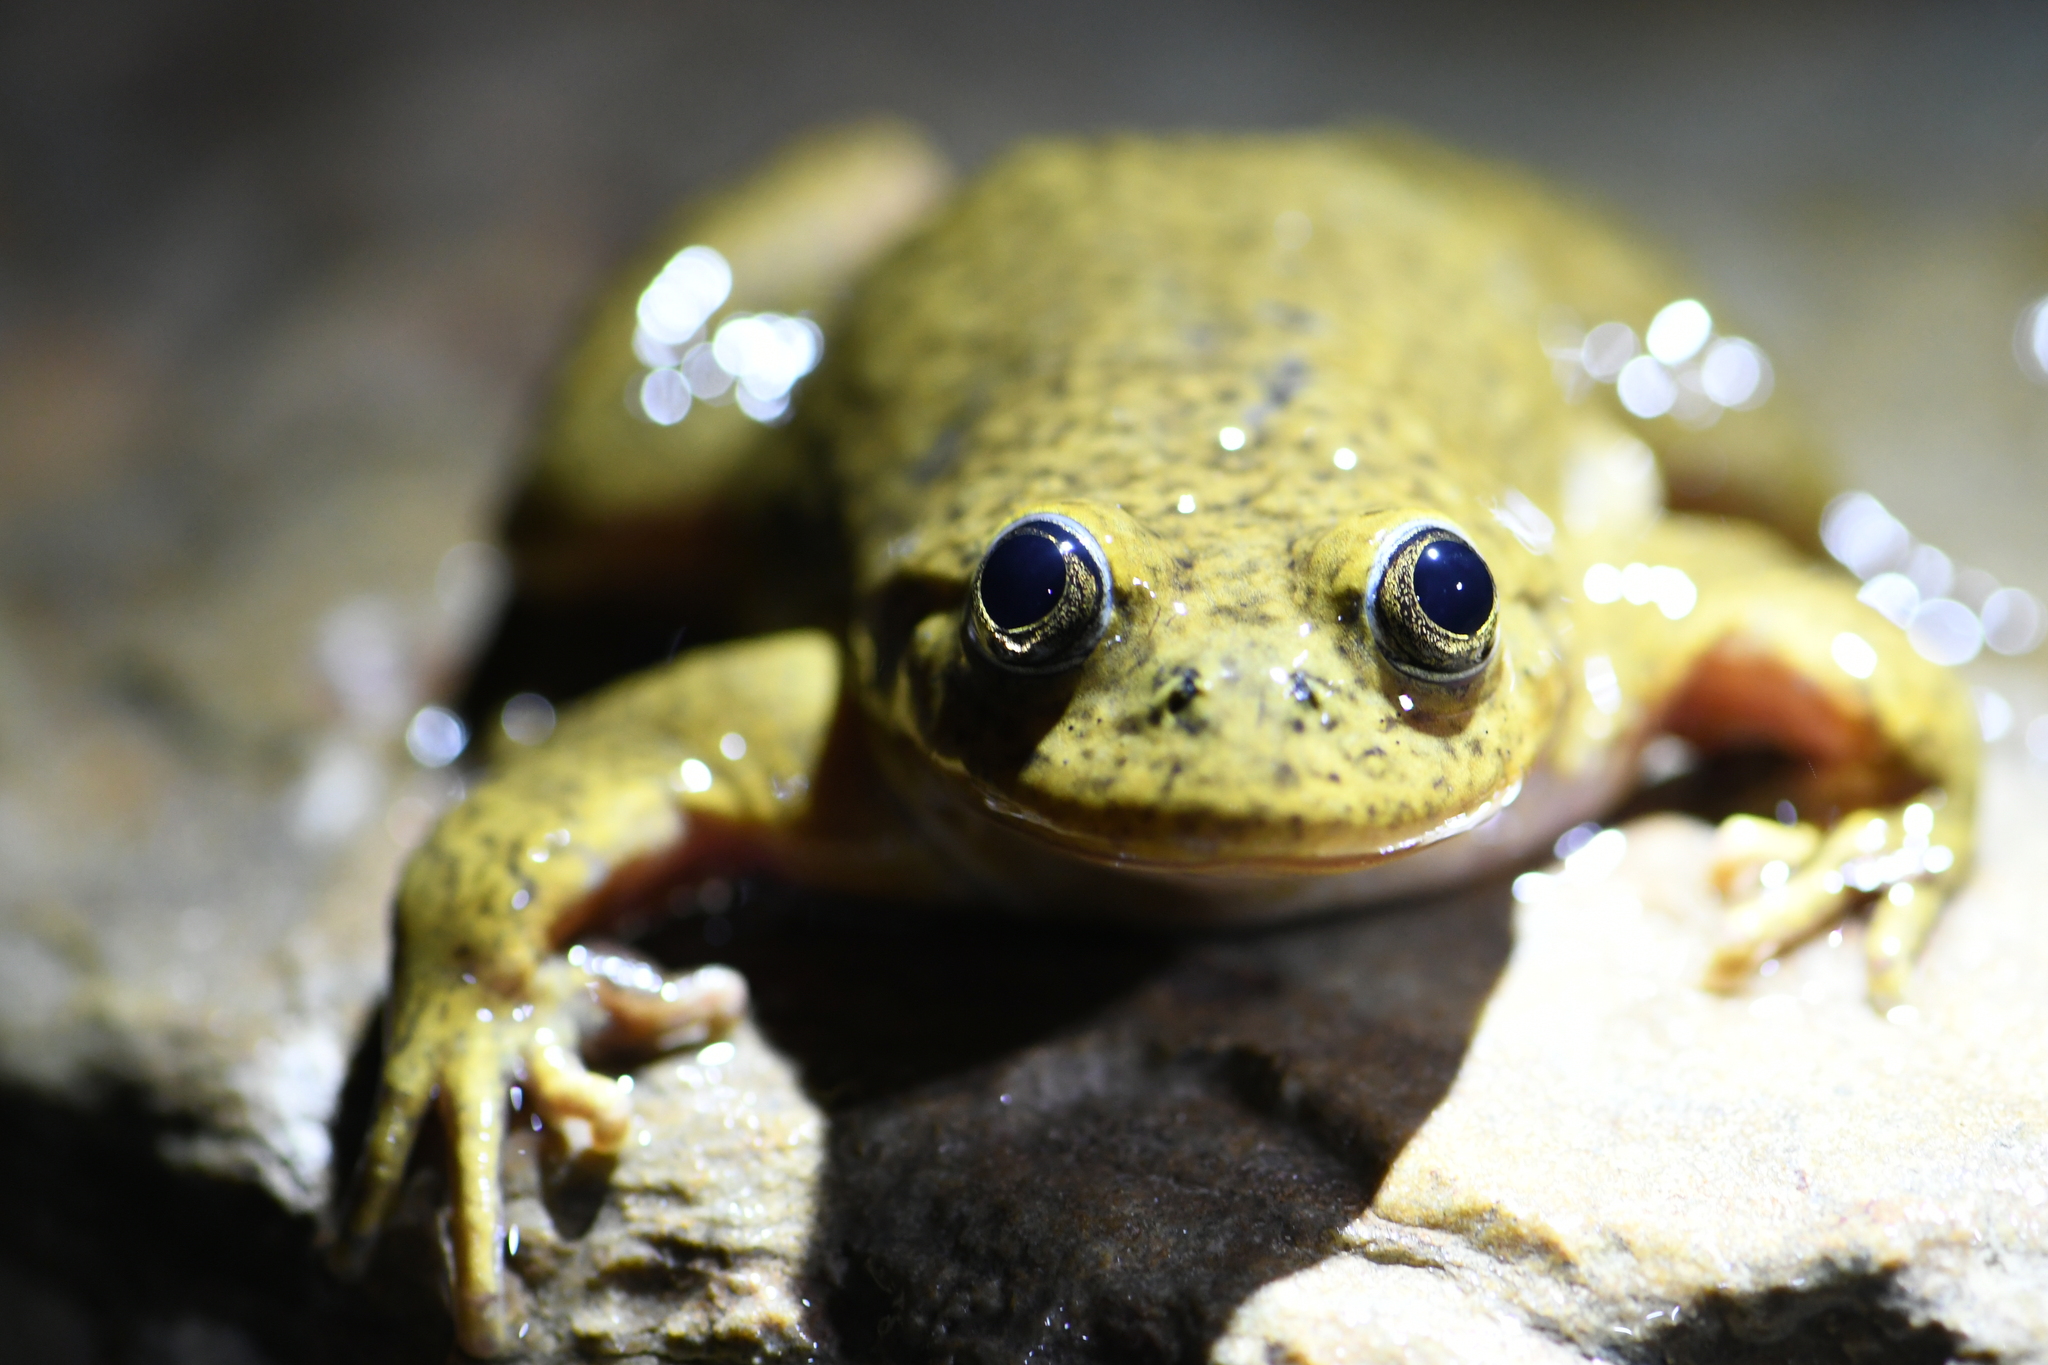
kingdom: Animalia
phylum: Chordata
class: Amphibia
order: Anura
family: Telmatobiidae
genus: Telmatobius
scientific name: Telmatobius hintoni
